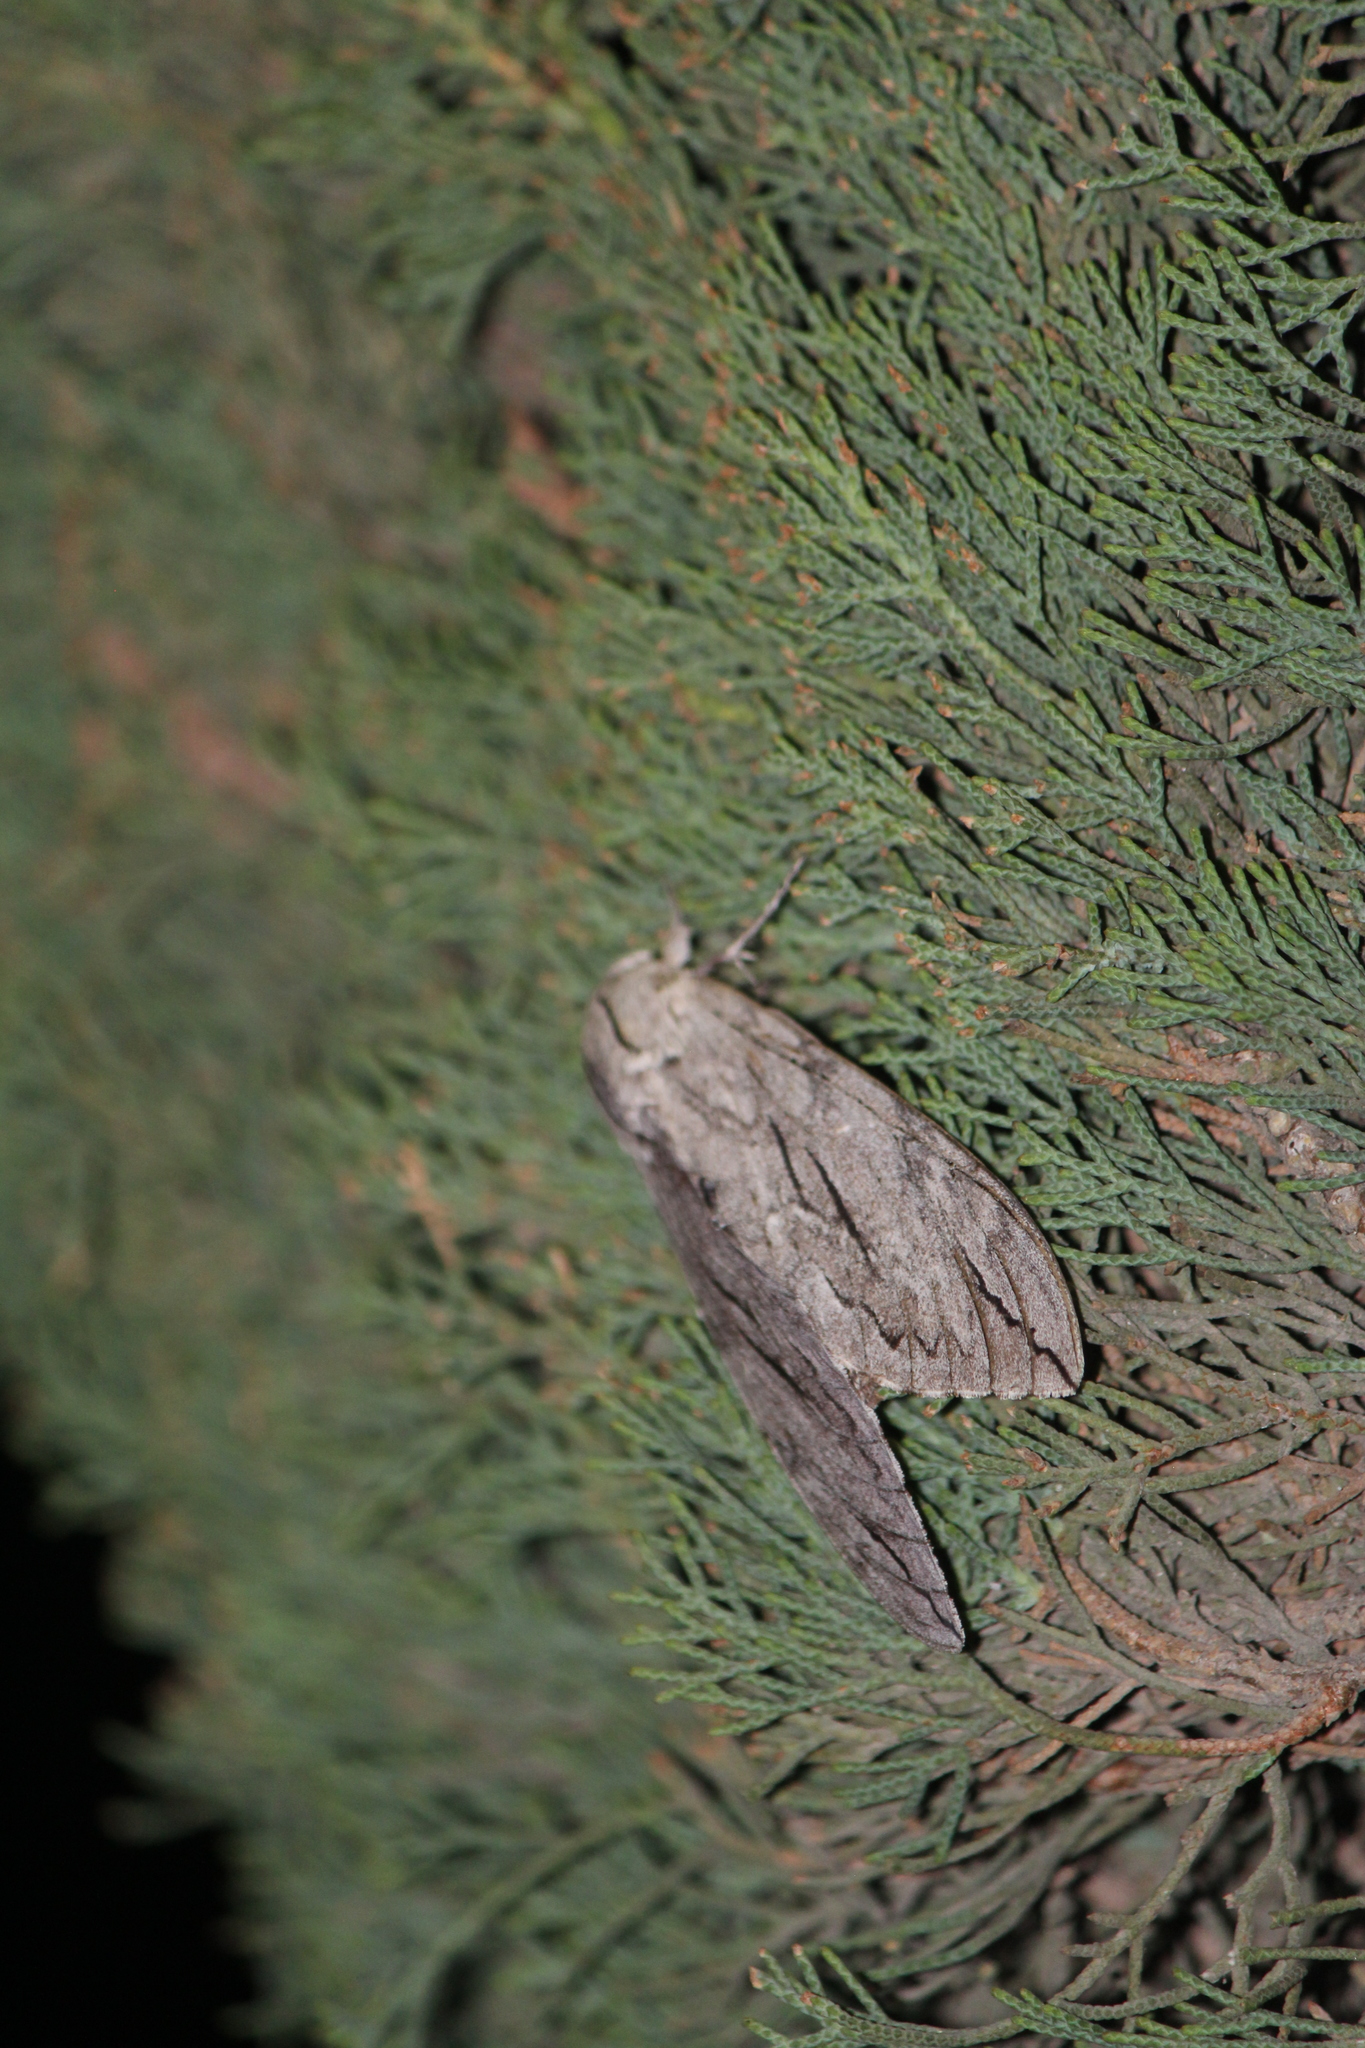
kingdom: Animalia
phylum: Arthropoda
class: Insecta
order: Lepidoptera
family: Sphingidae
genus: Sphinx
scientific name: Sphinx leucophaeata
